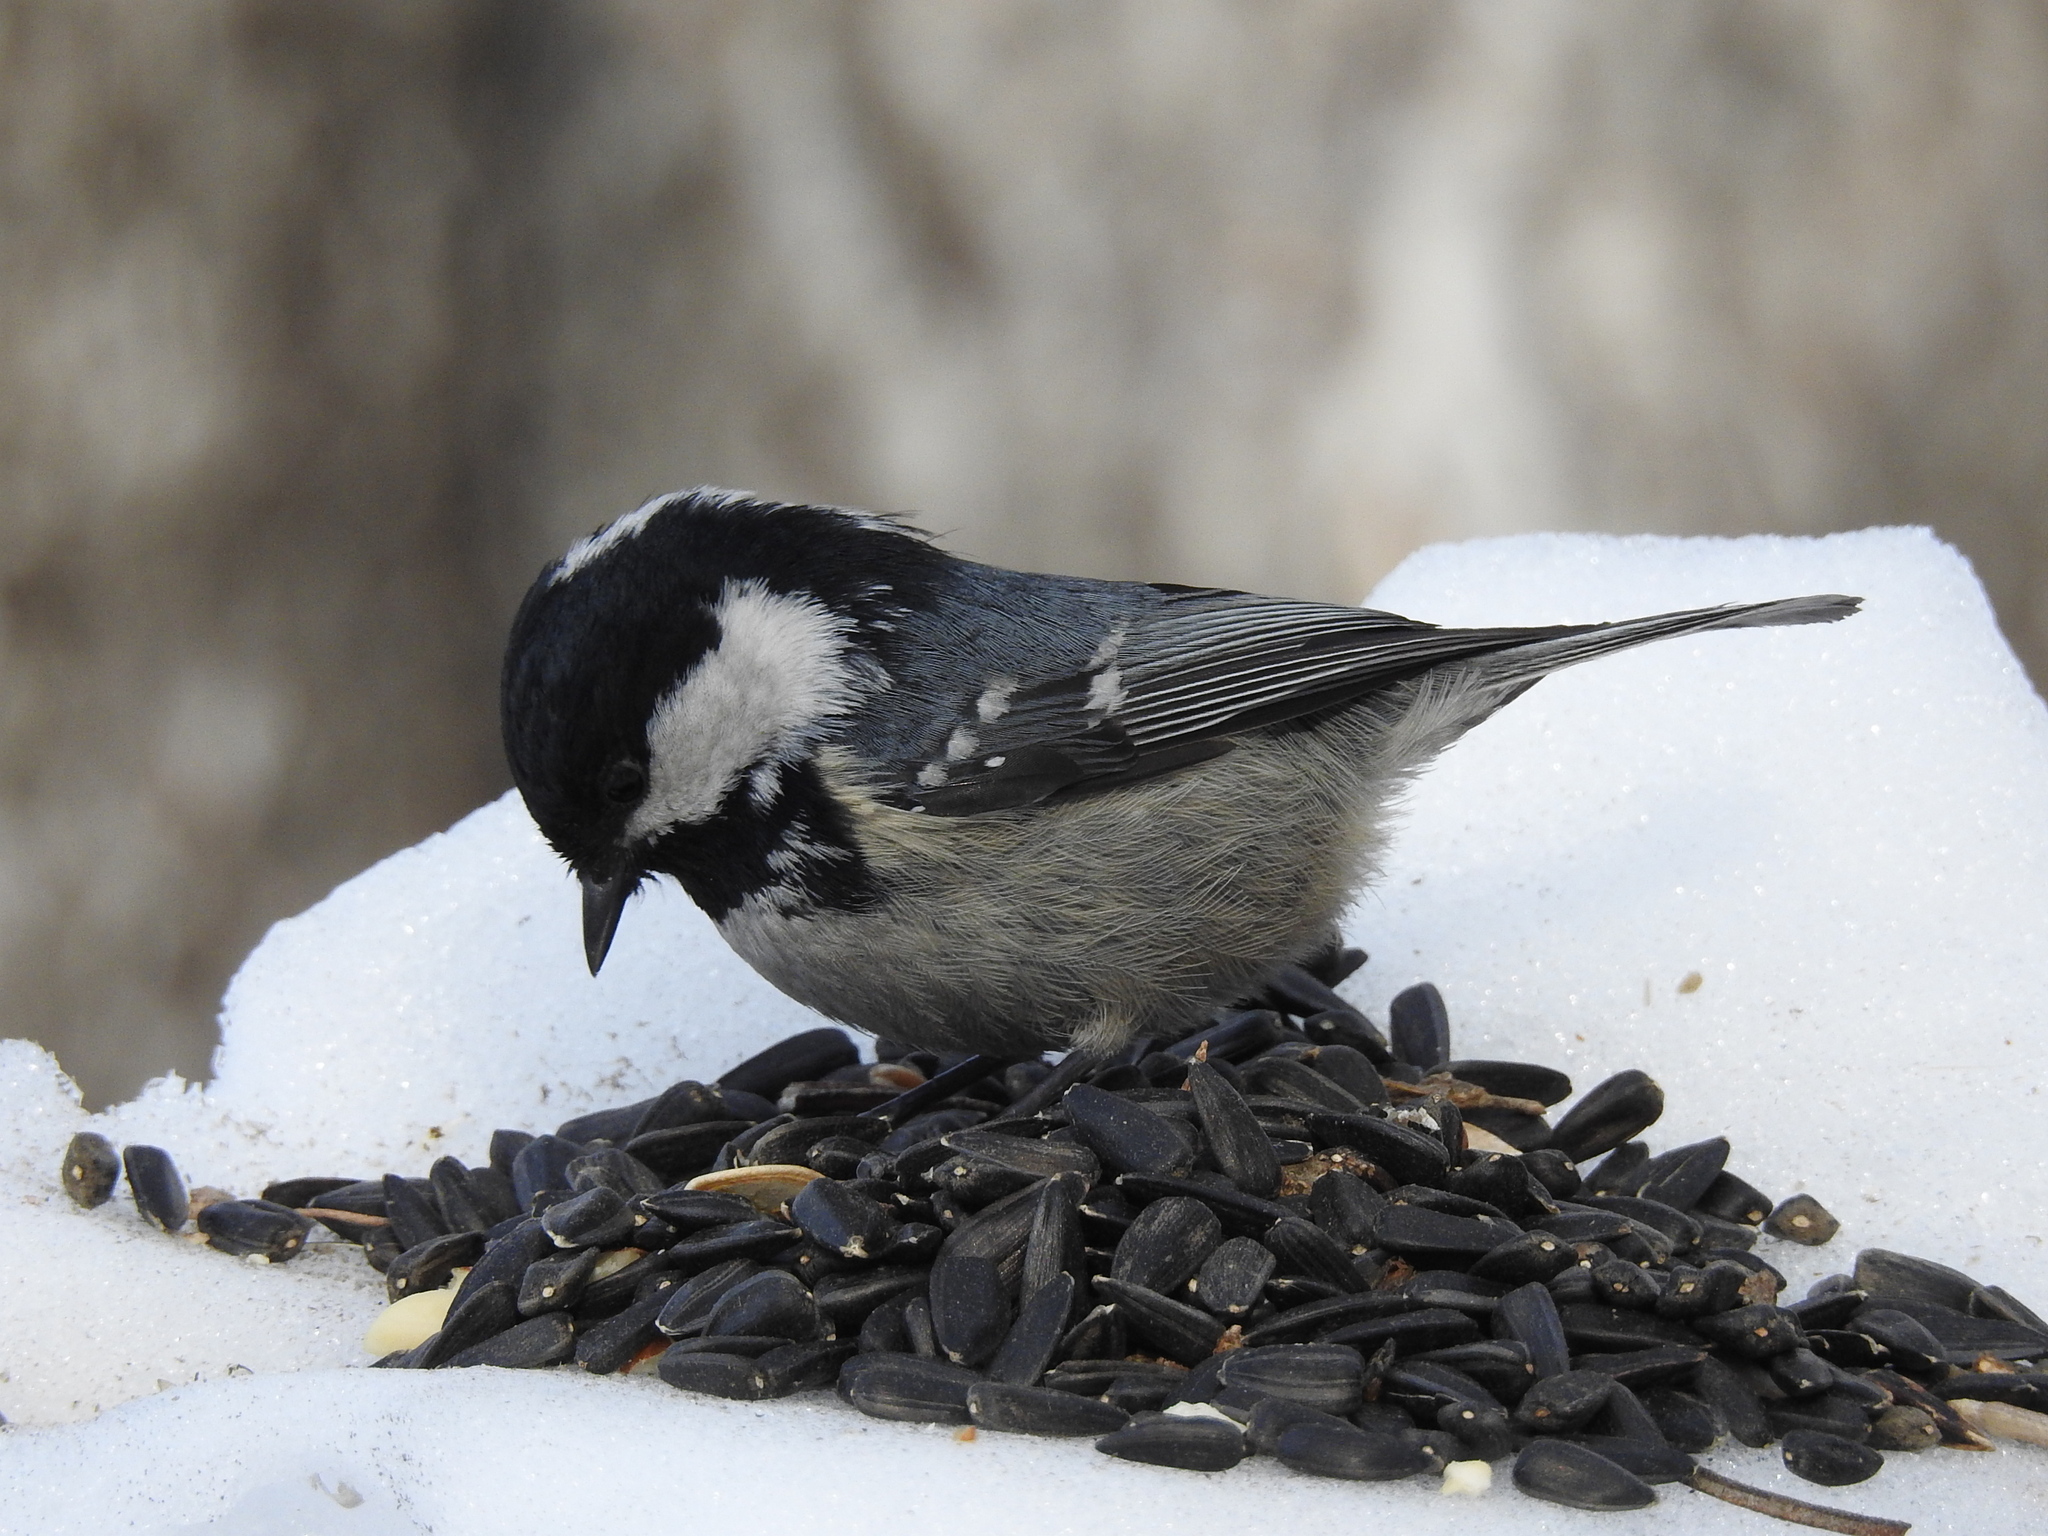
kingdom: Animalia
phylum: Chordata
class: Aves
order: Passeriformes
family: Paridae
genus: Periparus
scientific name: Periparus ater
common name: Coal tit
